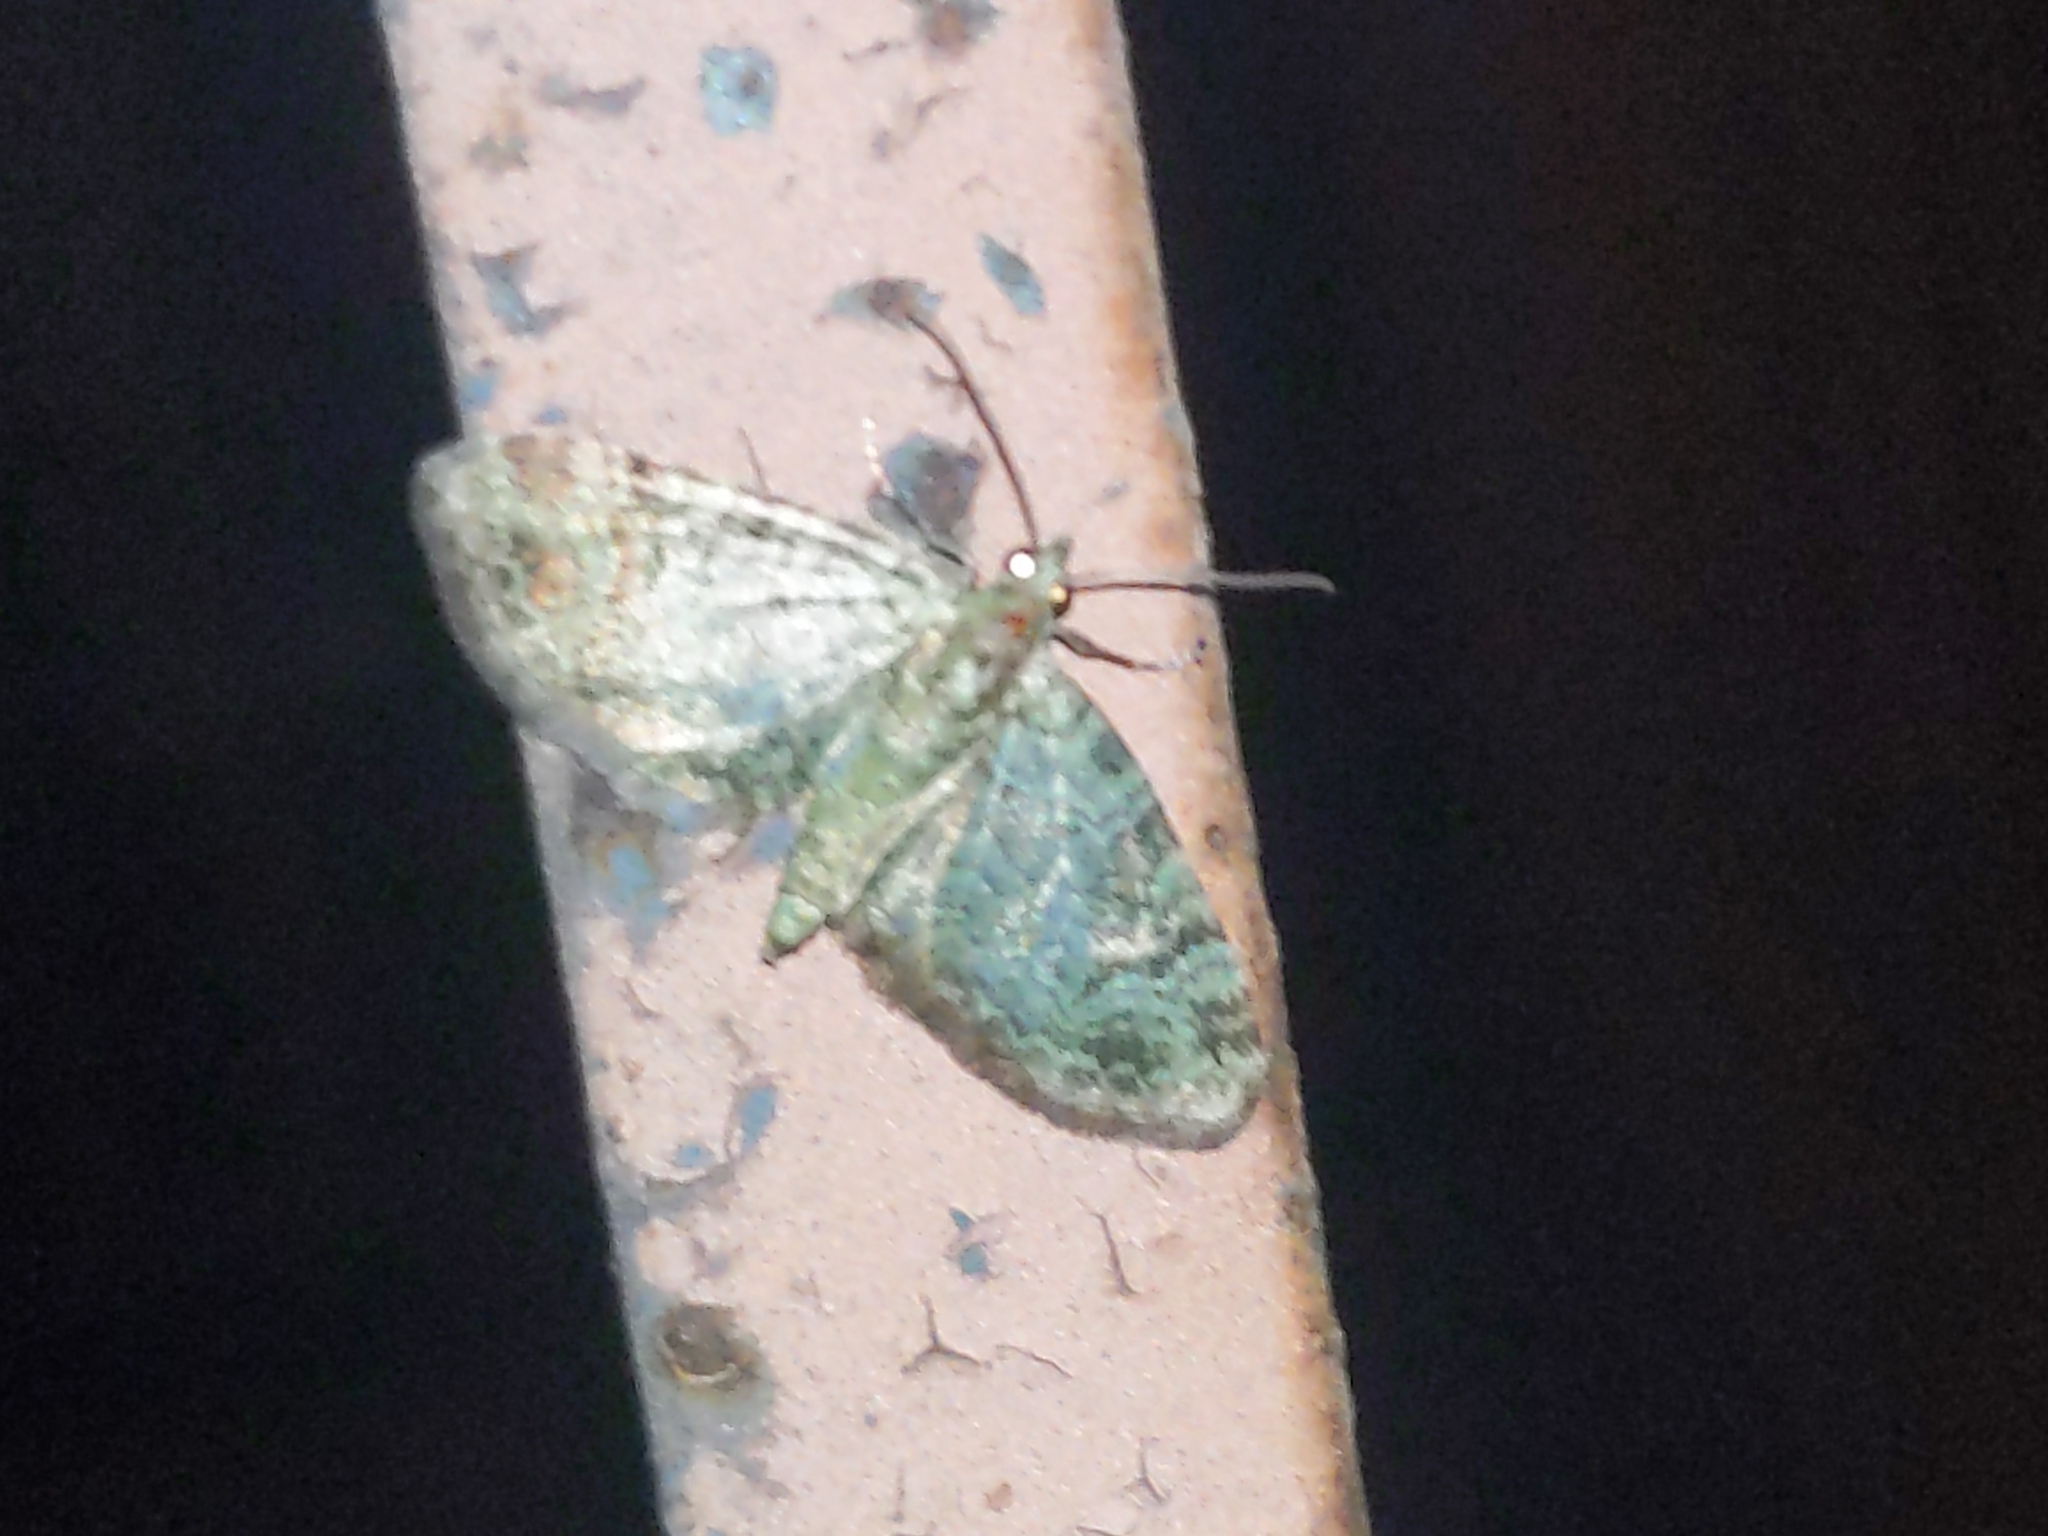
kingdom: Animalia
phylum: Arthropoda
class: Insecta
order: Lepidoptera
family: Geometridae
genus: Pasiphila
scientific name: Pasiphila rectangulata
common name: Green pug
